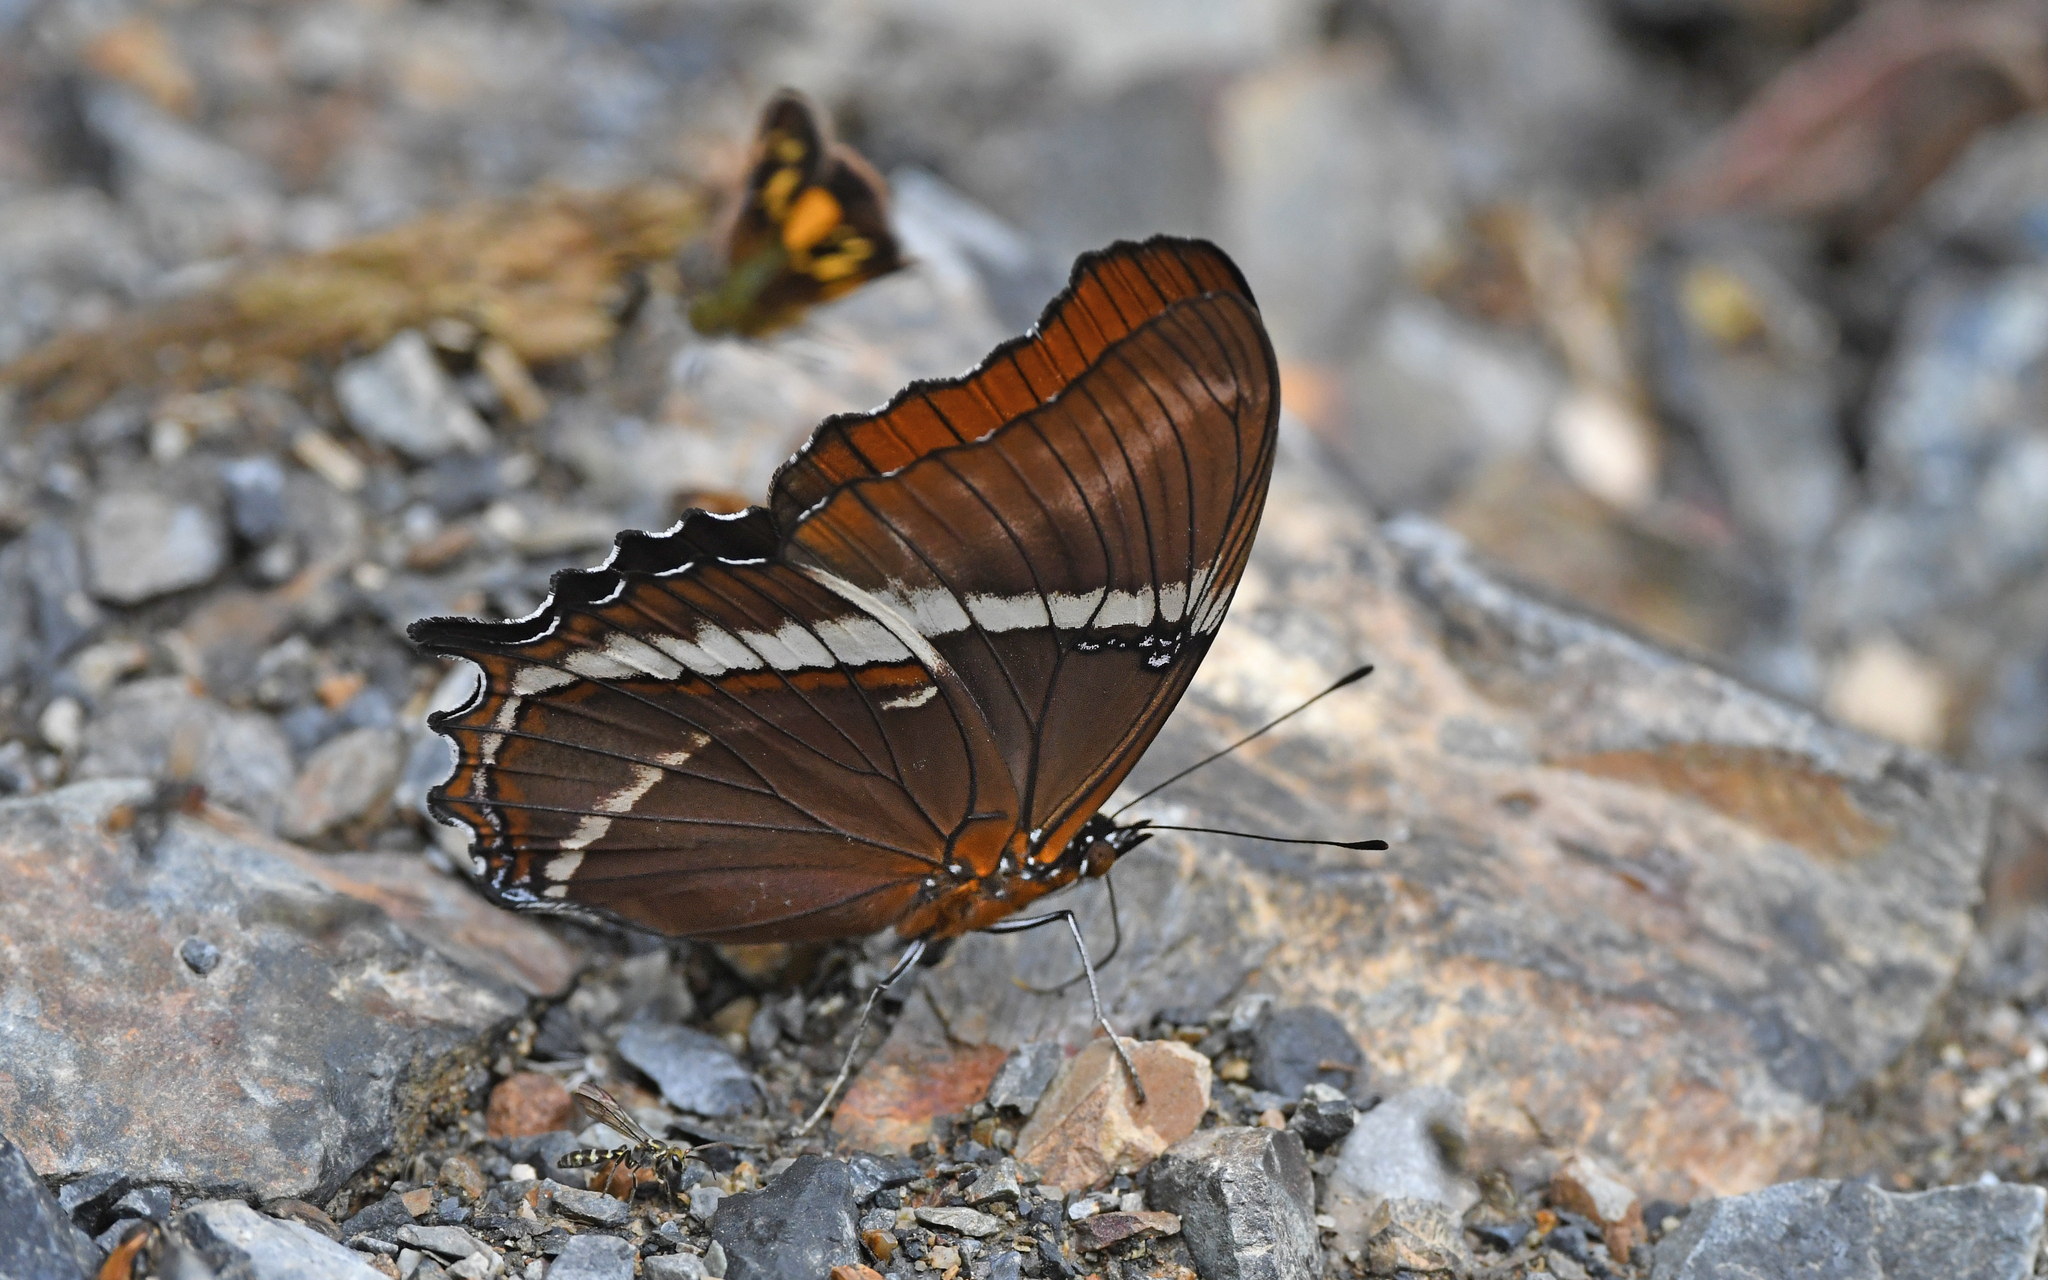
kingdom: Animalia
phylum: Arthropoda
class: Insecta
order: Lepidoptera
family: Nymphalidae
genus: Siproeta
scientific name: Siproeta epaphus
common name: Rusty-tipped page
